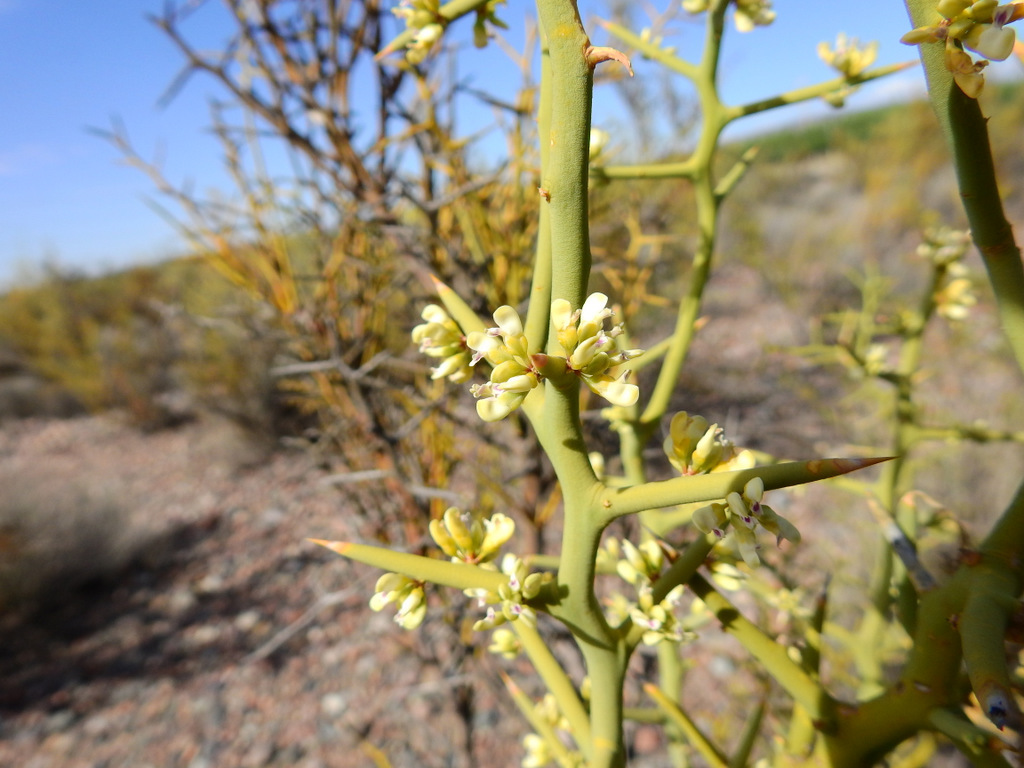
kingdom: Plantae
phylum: Tracheophyta
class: Magnoliopsida
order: Fabales
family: Polygalaceae
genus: Bredemeyera
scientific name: Bredemeyera colletioides
